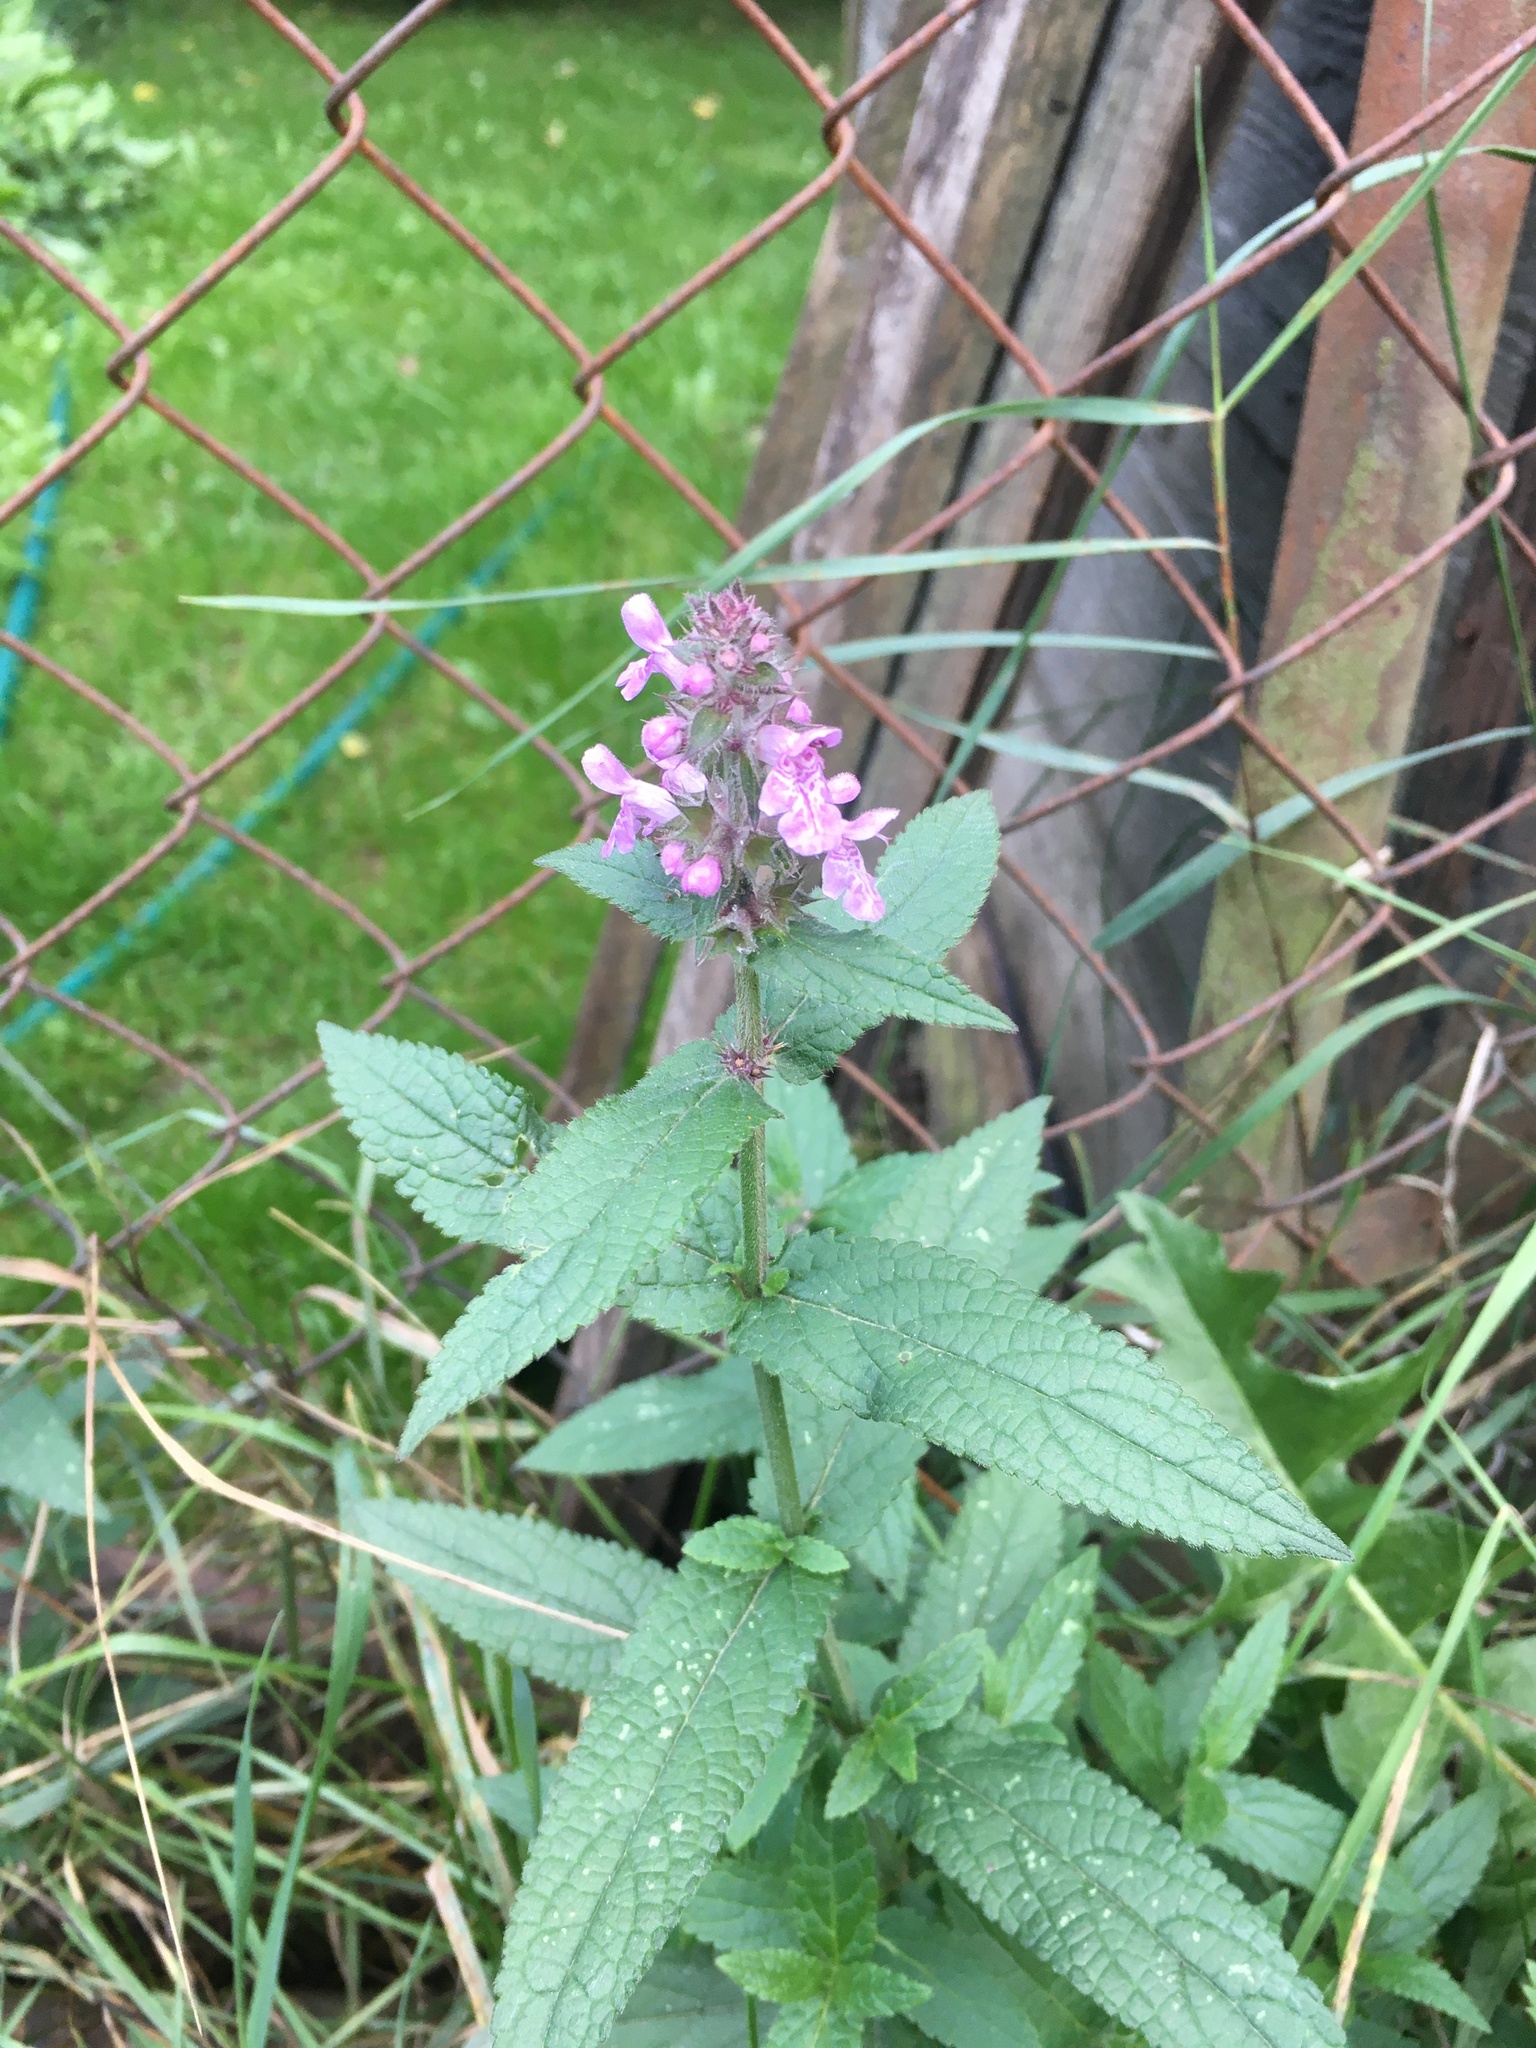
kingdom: Plantae
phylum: Tracheophyta
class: Magnoliopsida
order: Lamiales
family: Lamiaceae
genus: Stachys
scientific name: Stachys palustris
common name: Marsh woundwort
